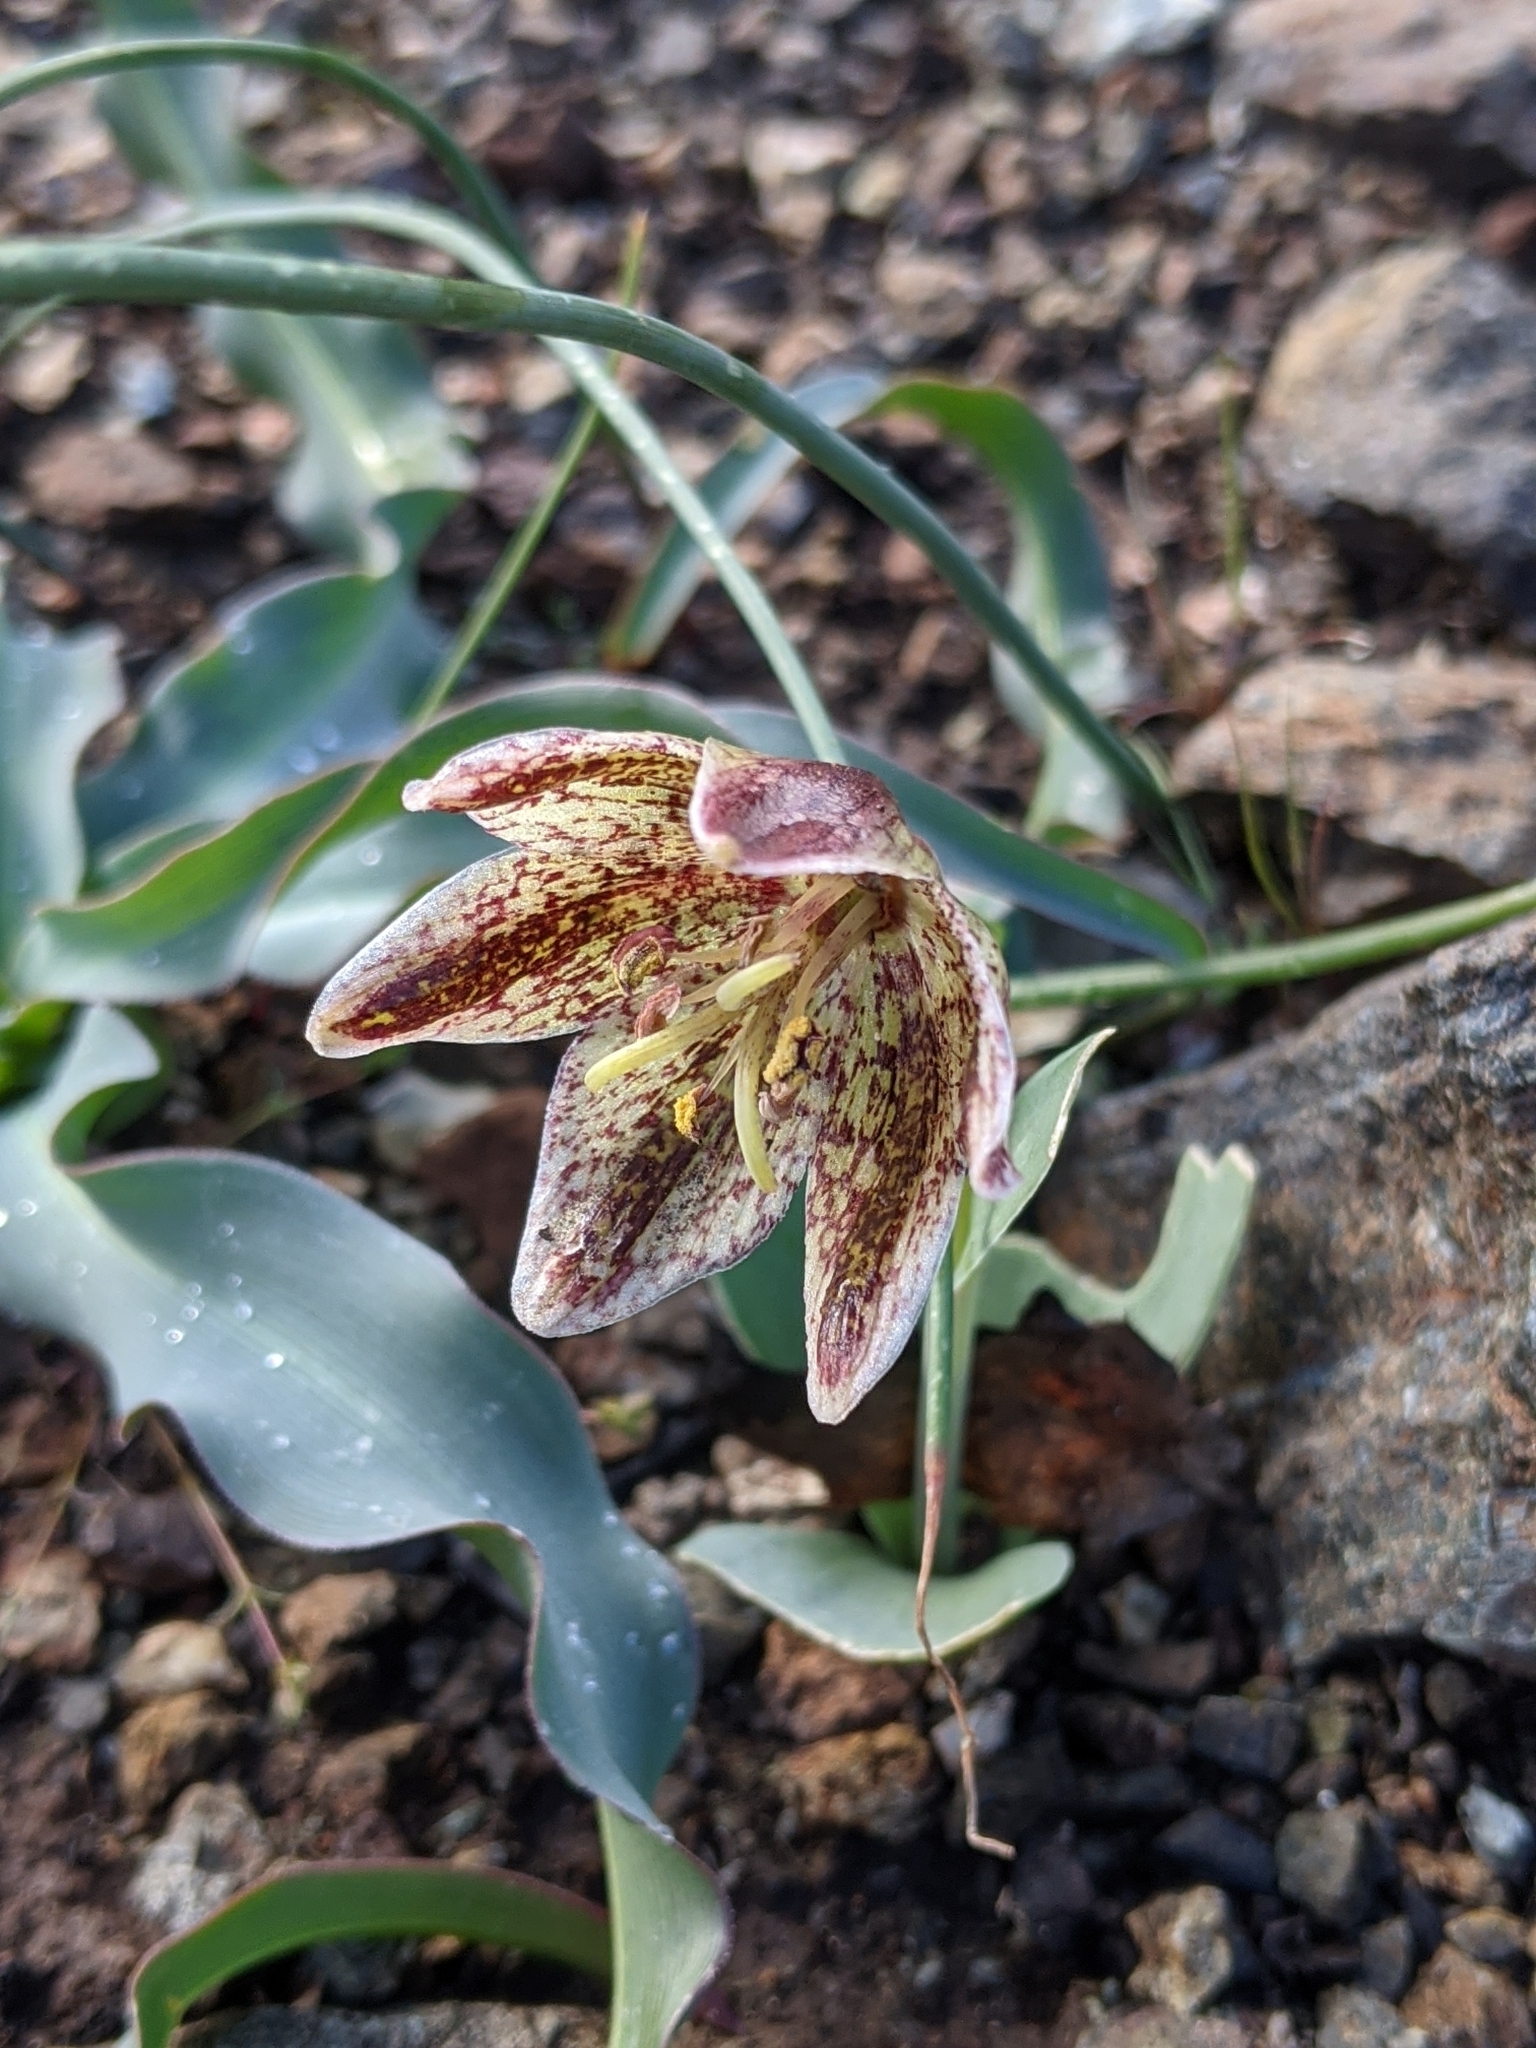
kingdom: Plantae
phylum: Tracheophyta
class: Liliopsida
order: Liliales
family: Liliaceae
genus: Fritillaria
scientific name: Fritillaria purdyi
